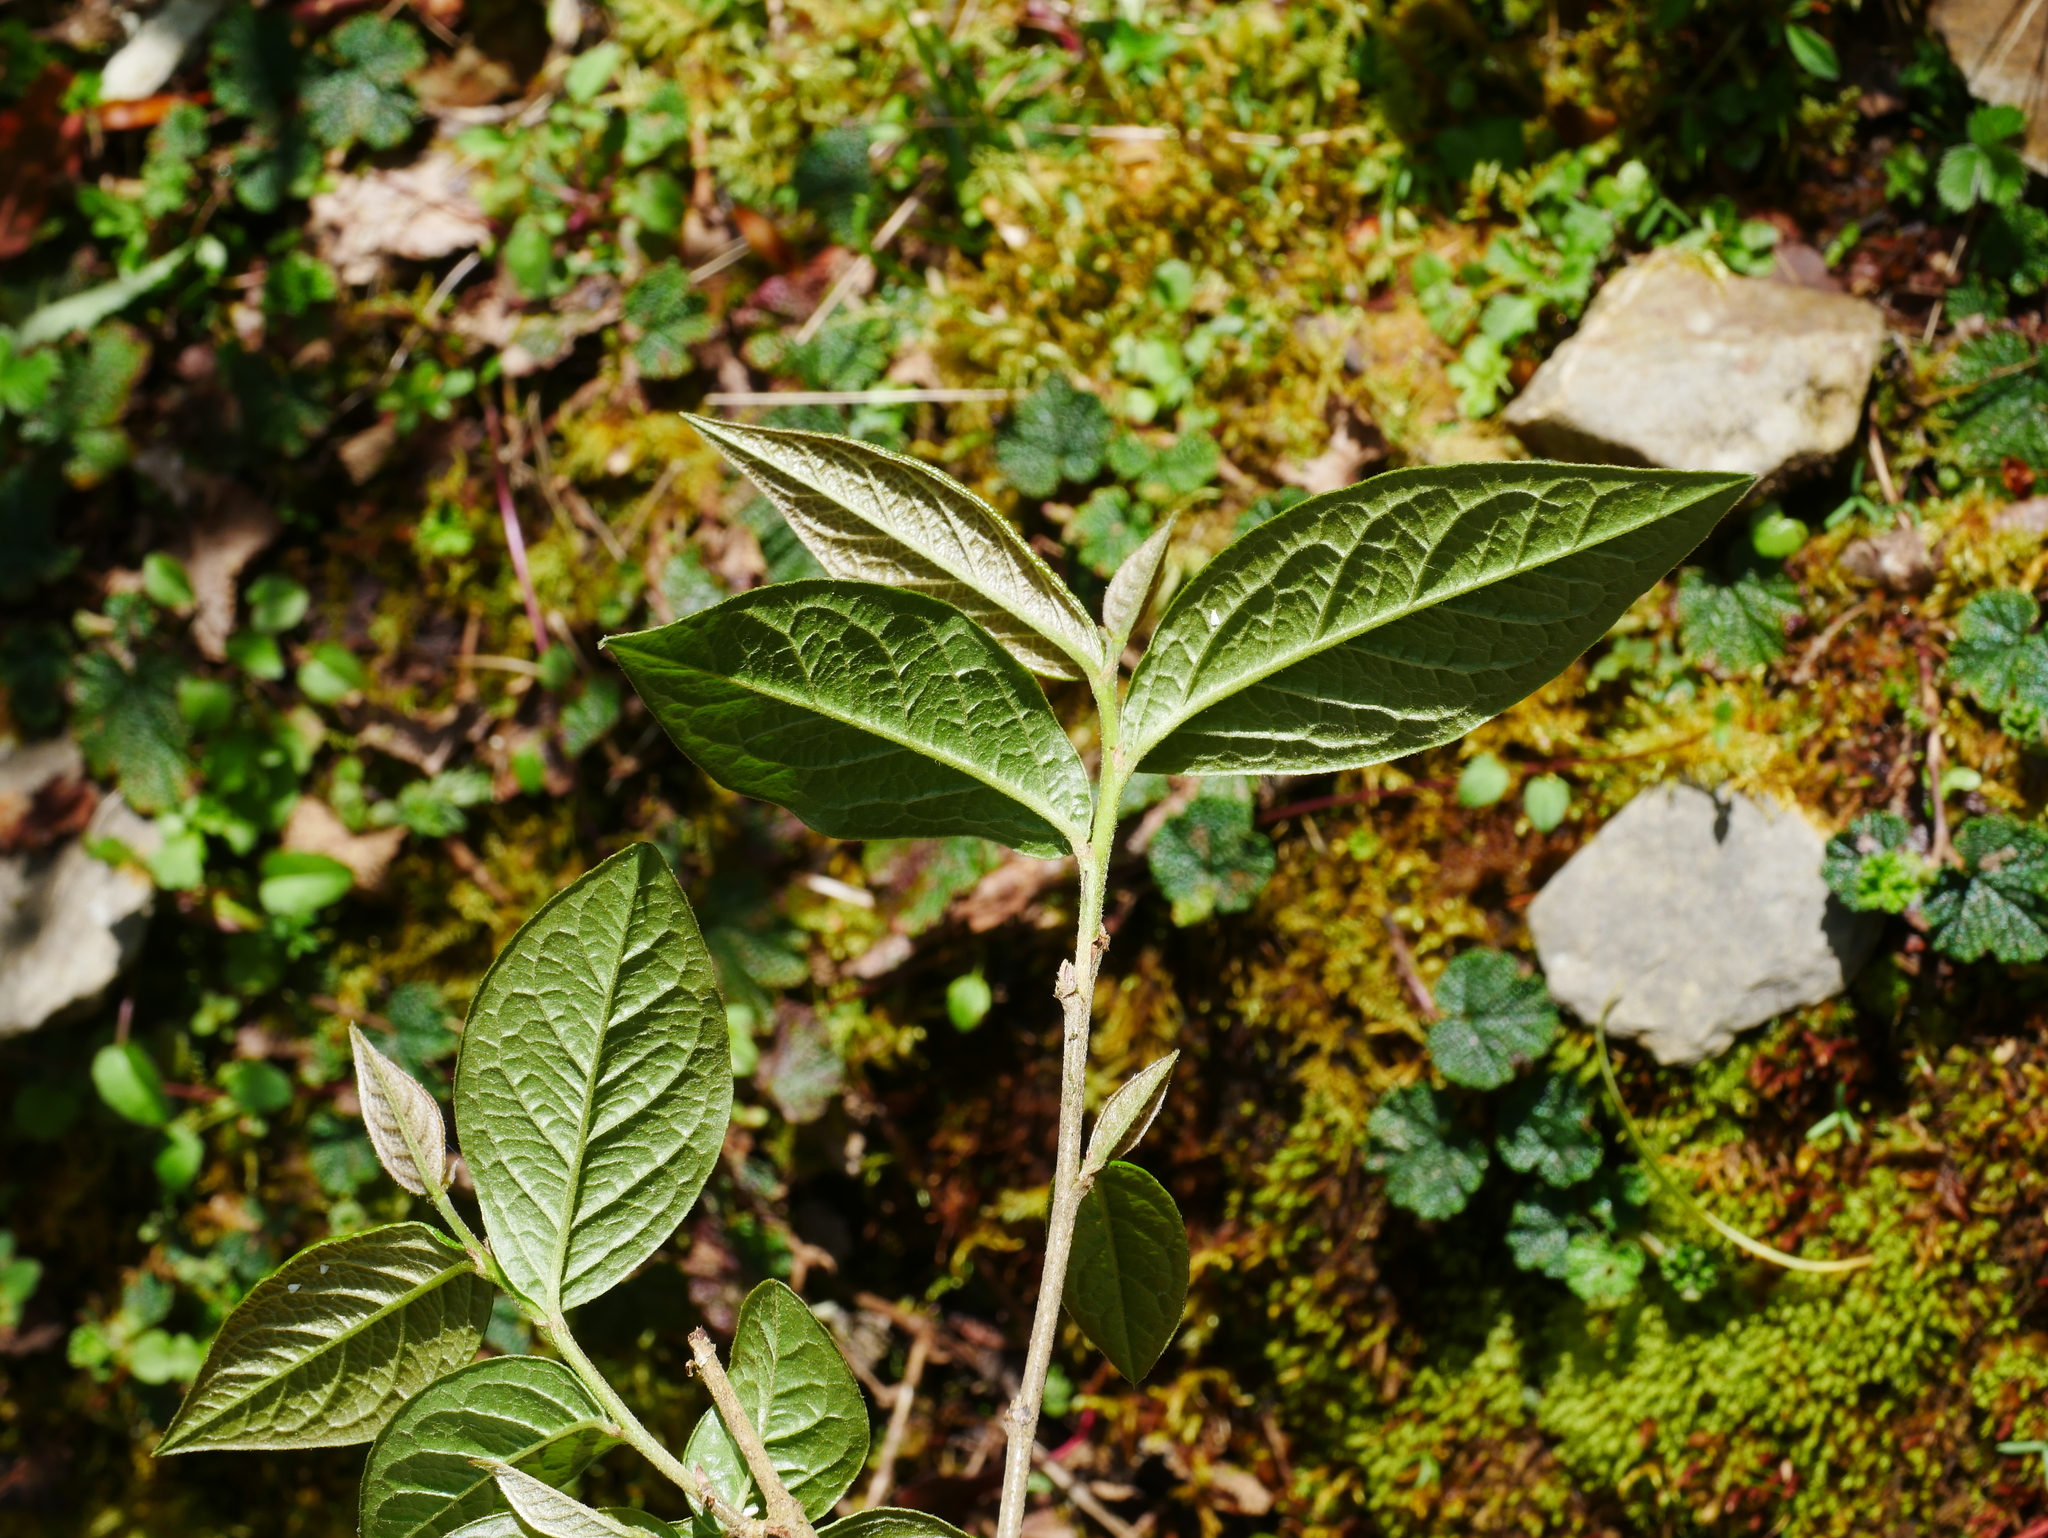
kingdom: Plantae
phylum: Tracheophyta
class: Magnoliopsida
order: Rosales
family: Rosaceae
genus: Cotoneaster
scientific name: Cotoneaster bullatus
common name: Hollyberry cotoneaster
